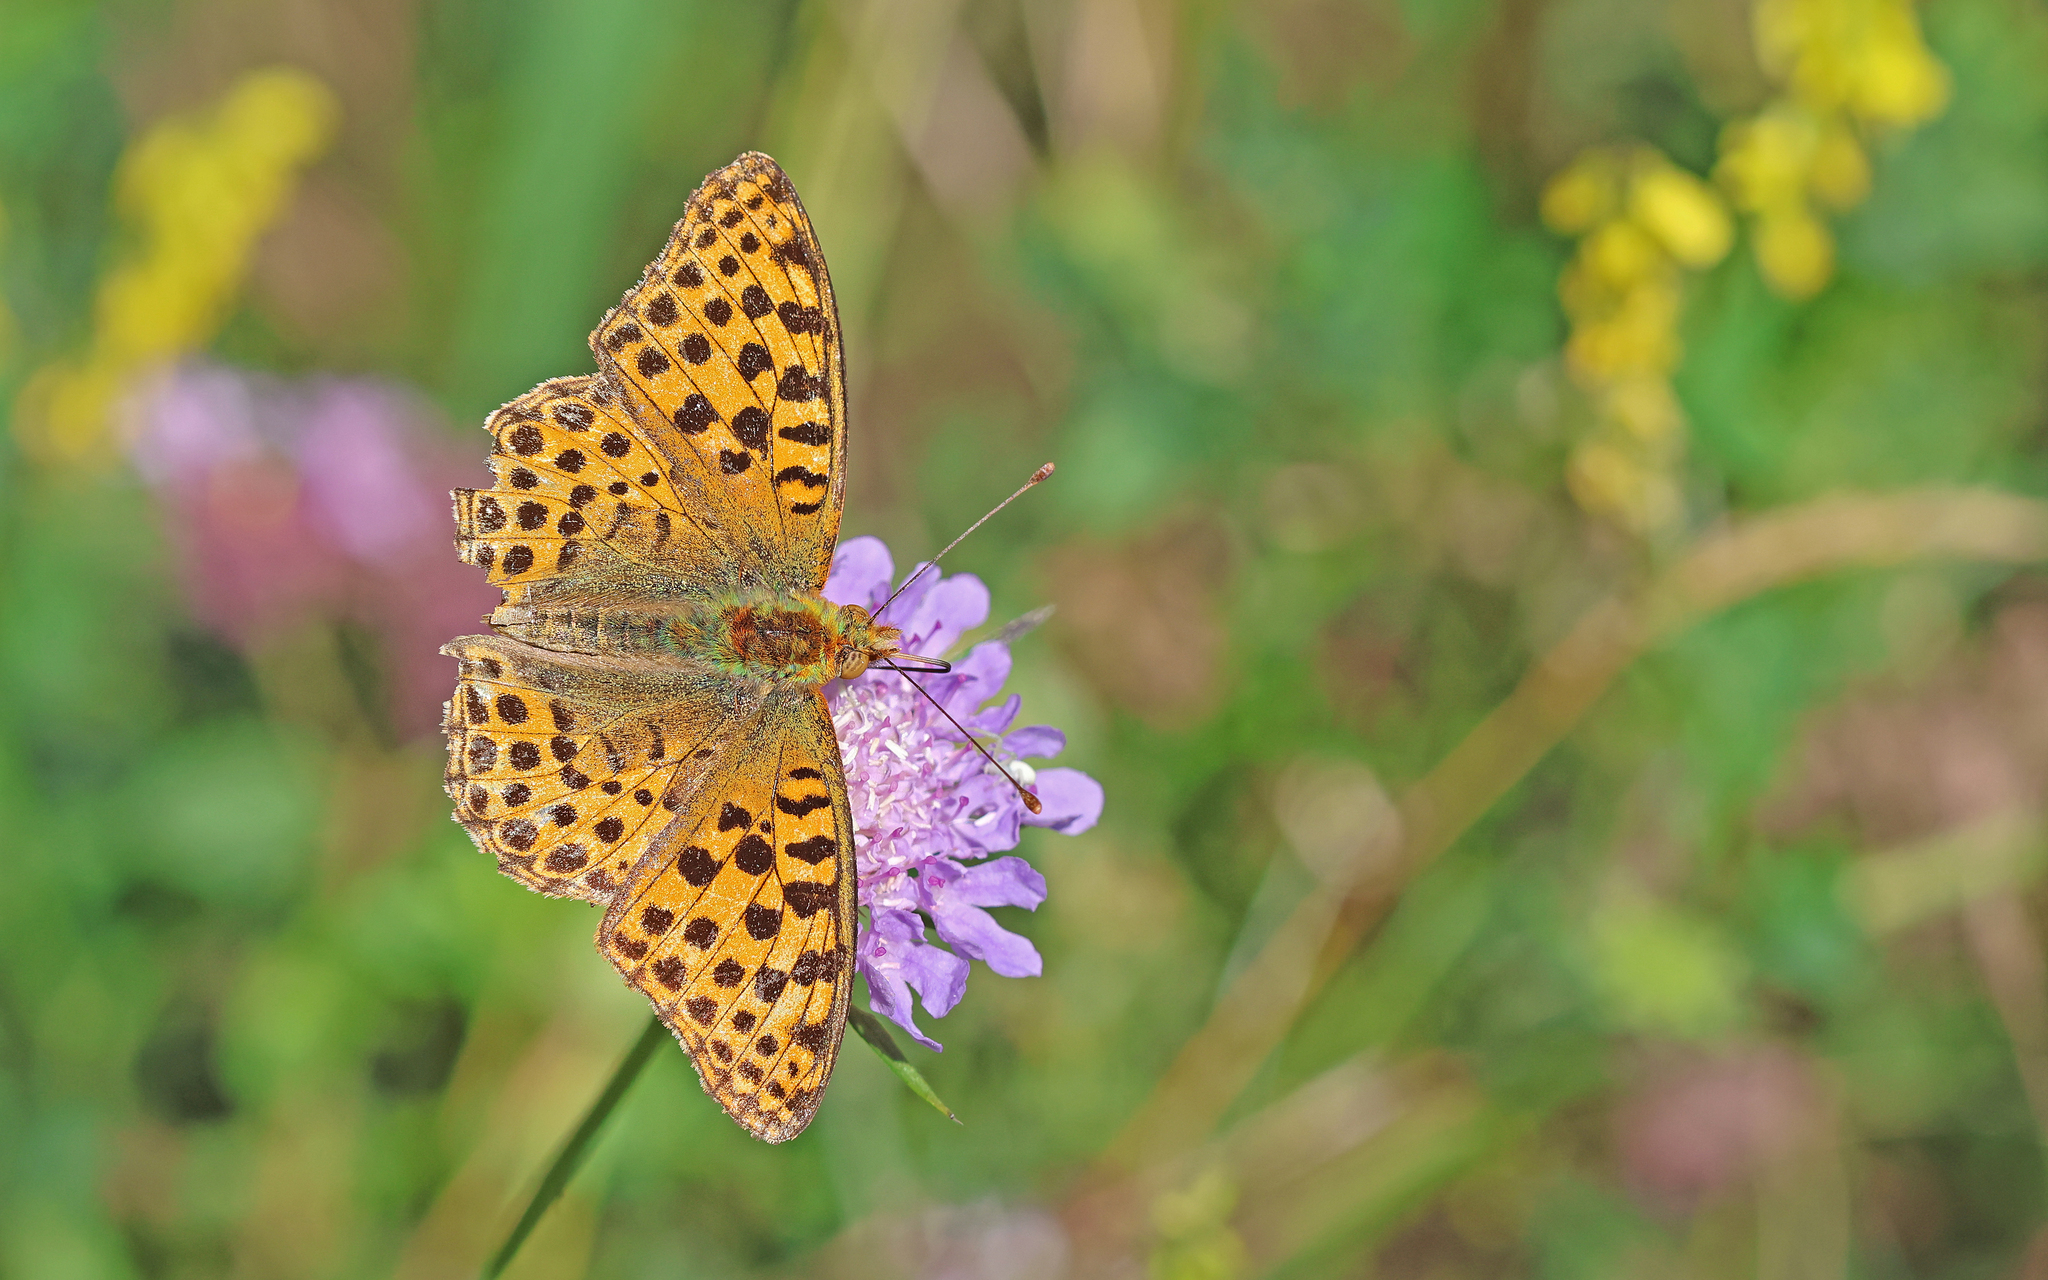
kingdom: Animalia
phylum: Arthropoda
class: Insecta
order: Lepidoptera
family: Nymphalidae
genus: Issoria
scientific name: Issoria lathonia
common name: Queen of spain fritillary
